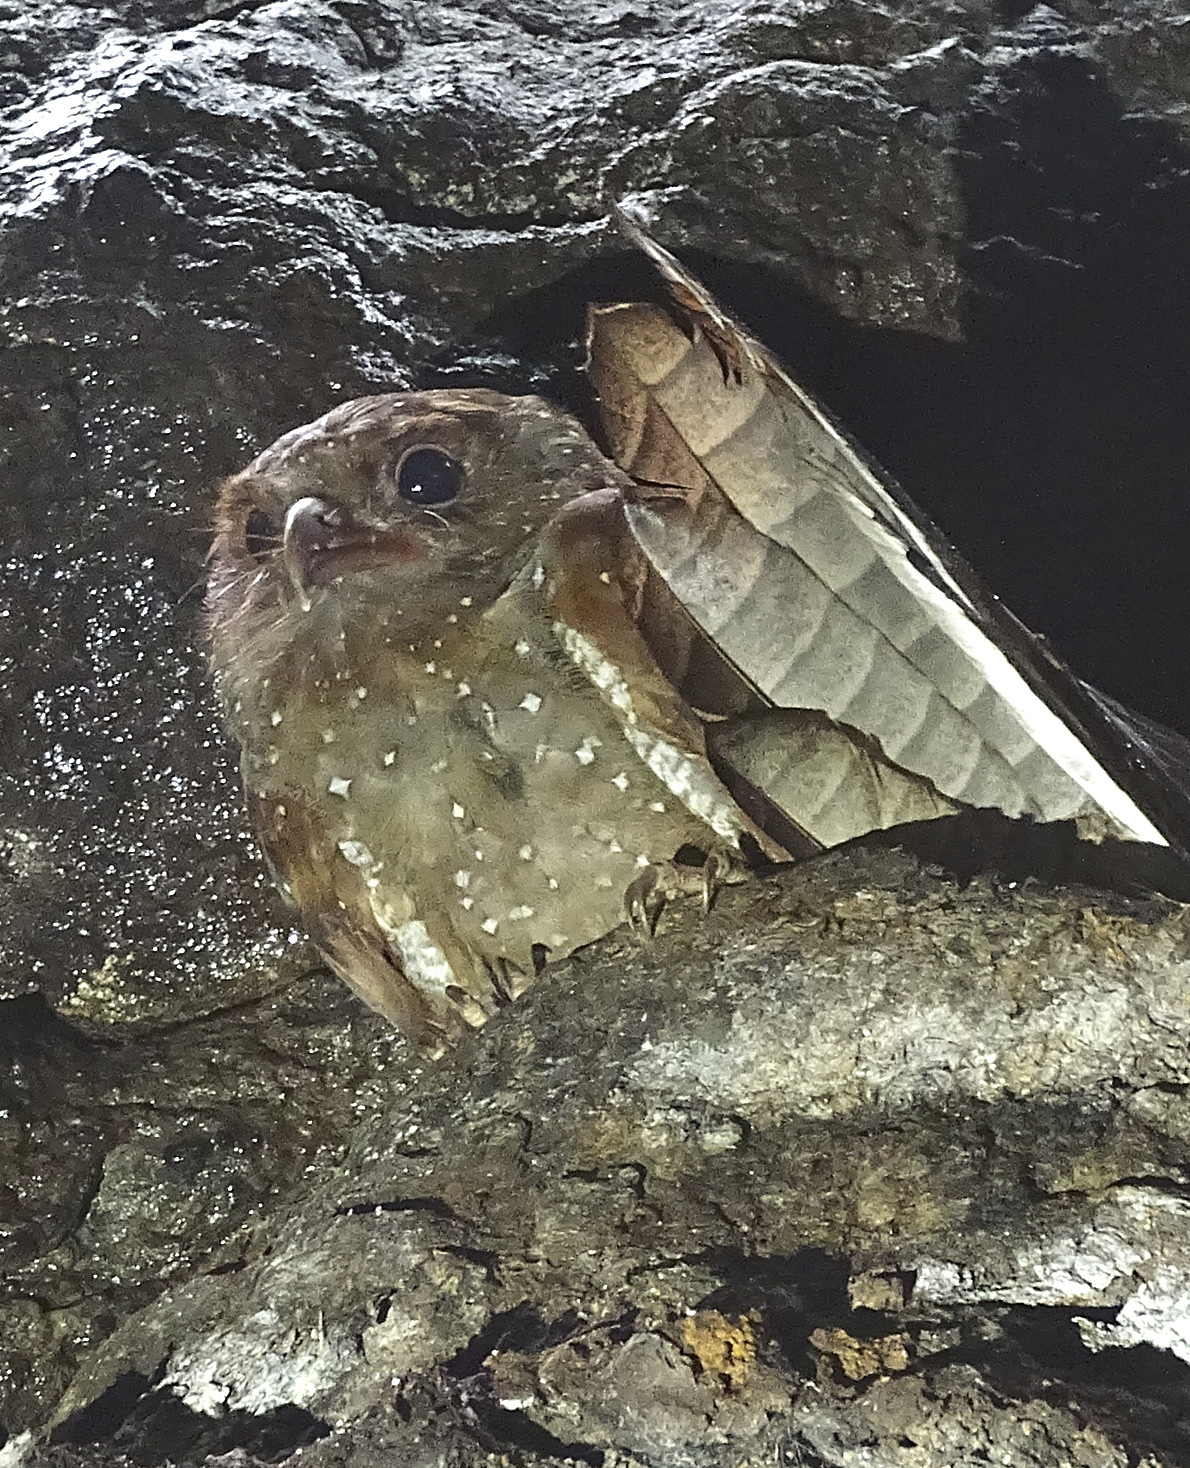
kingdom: Animalia
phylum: Chordata
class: Aves
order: Steatornithiformes
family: Steatornithidae
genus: Steatornis
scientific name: Steatornis caripensis
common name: Oilbird
